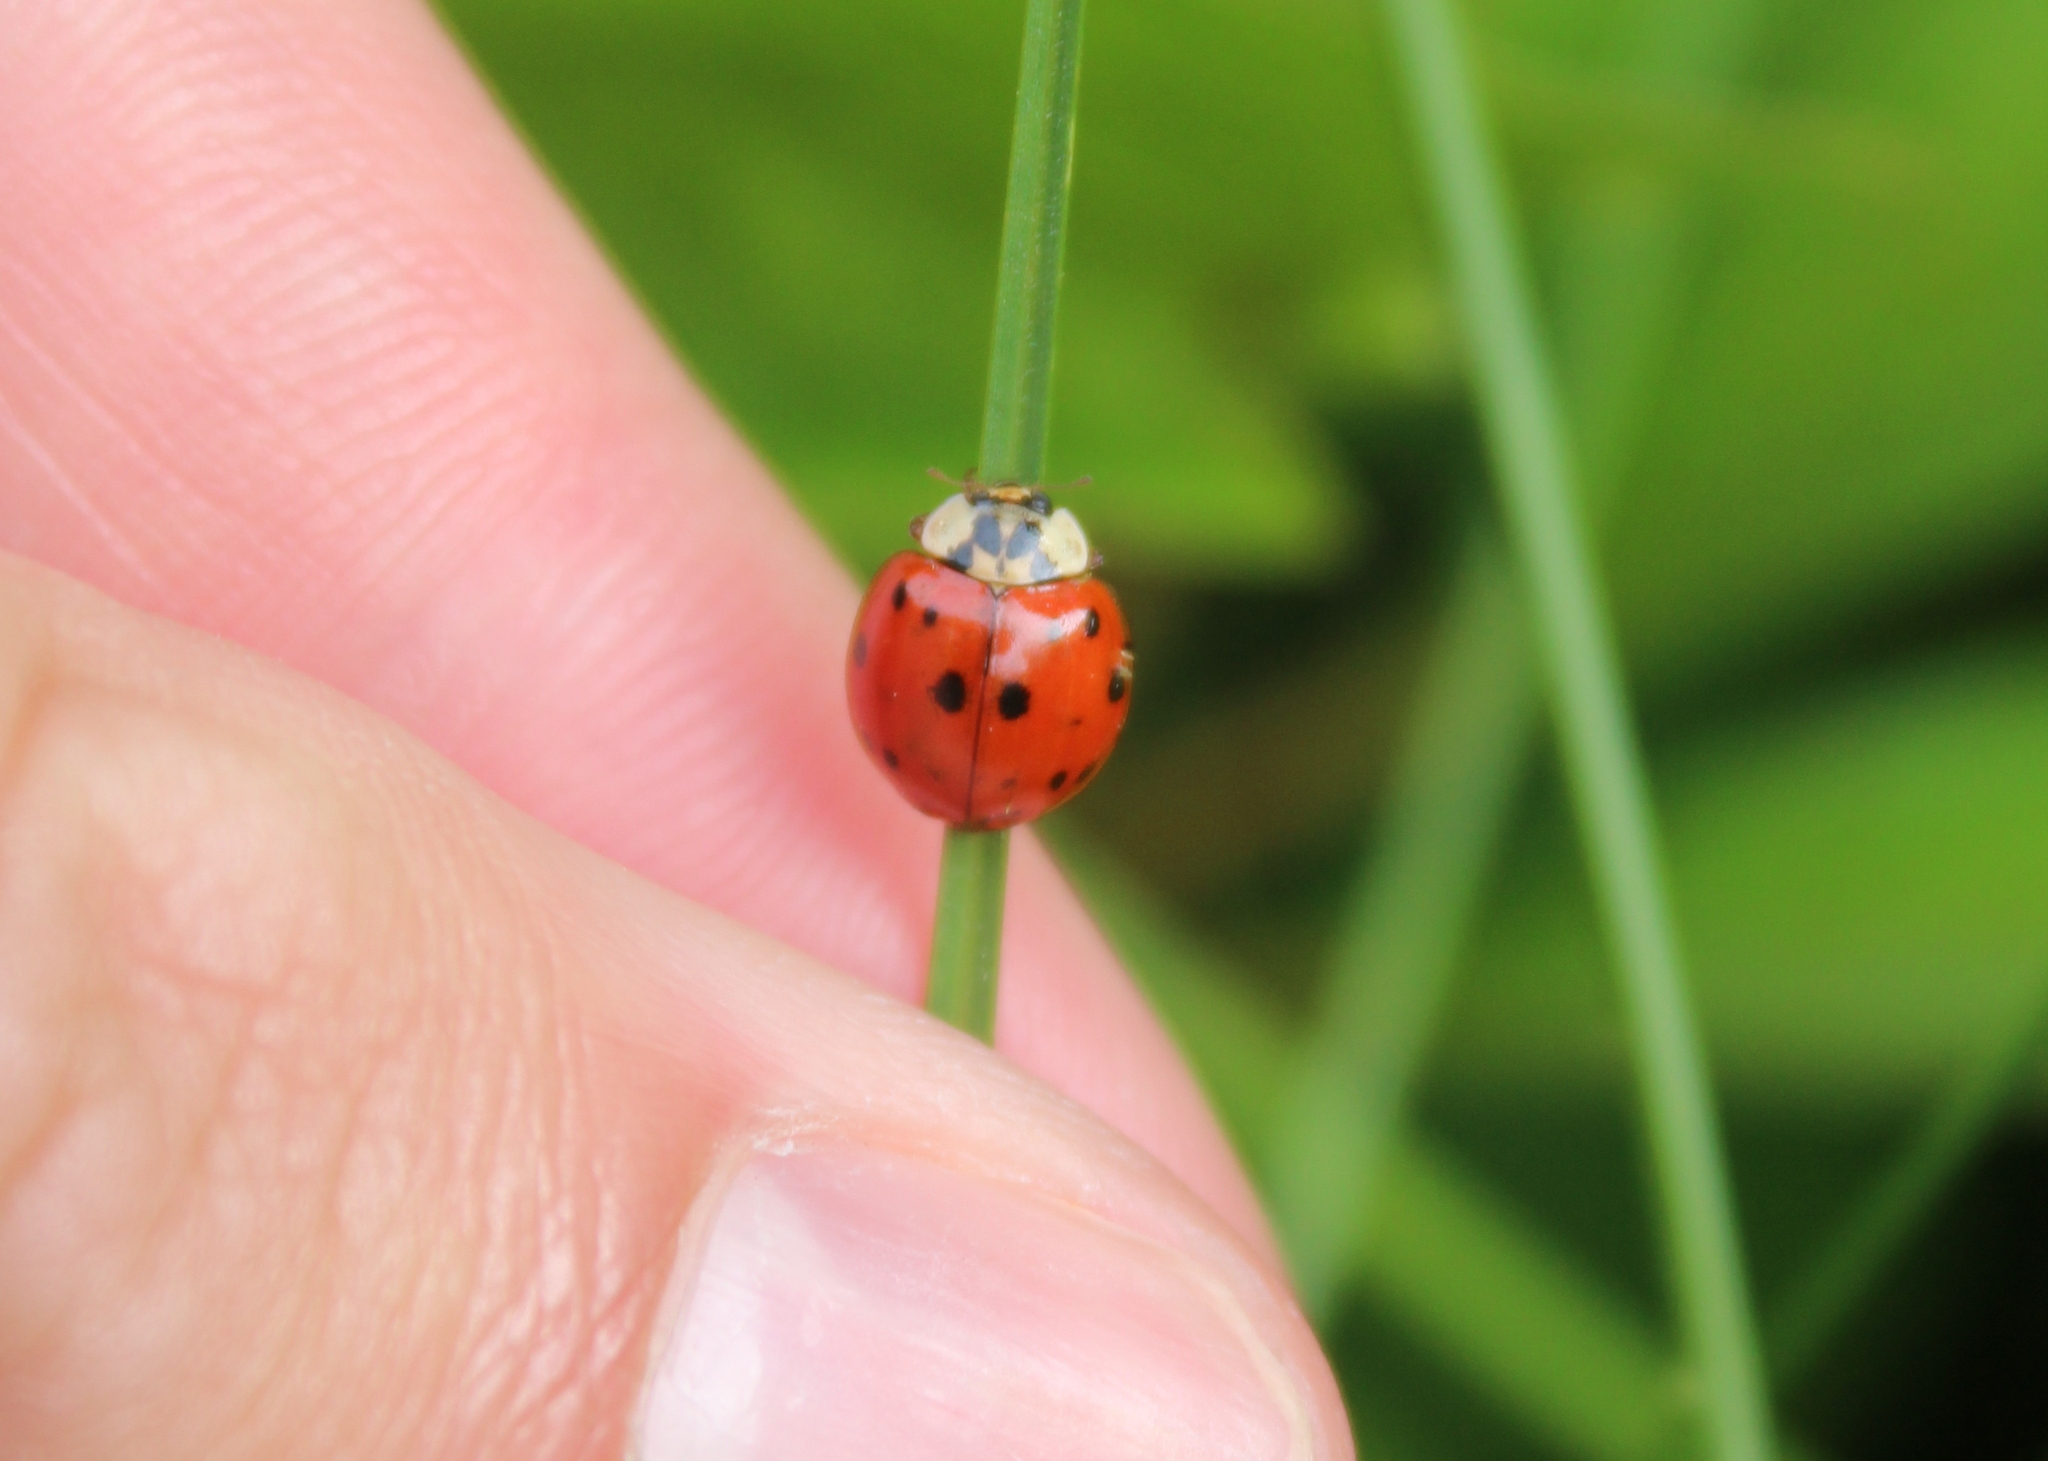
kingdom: Animalia
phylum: Arthropoda
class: Insecta
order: Coleoptera
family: Coccinellidae
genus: Harmonia
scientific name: Harmonia axyridis
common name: Harlequin ladybird
